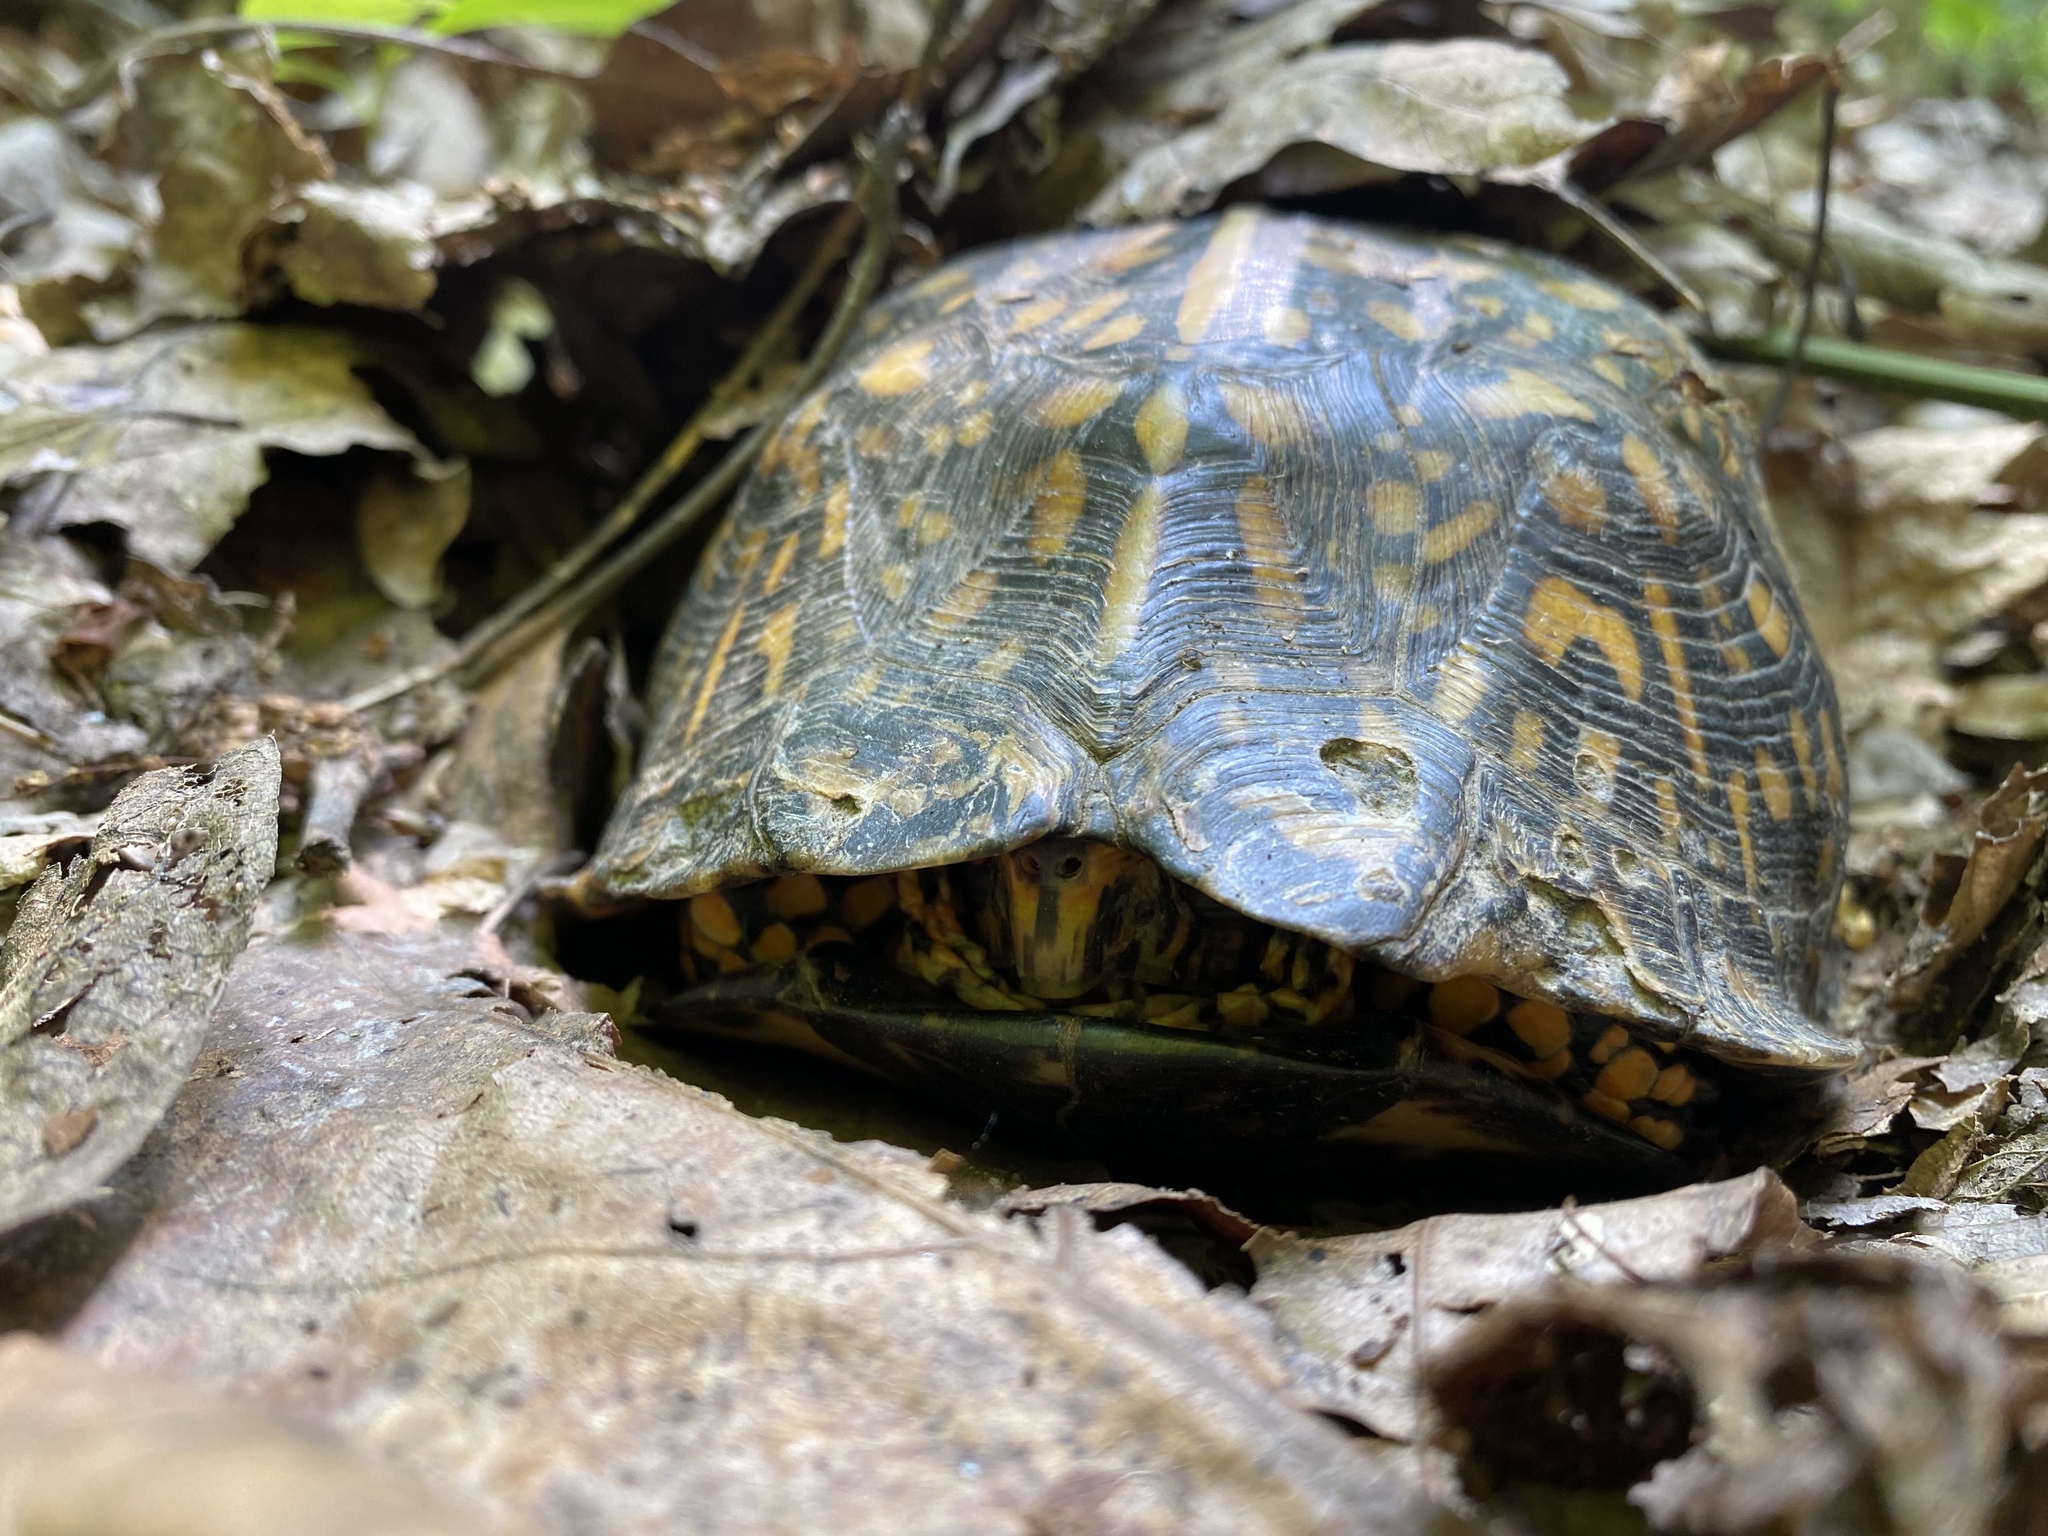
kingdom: Animalia
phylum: Chordata
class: Testudines
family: Emydidae
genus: Terrapene
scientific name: Terrapene carolina
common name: Common box turtle
